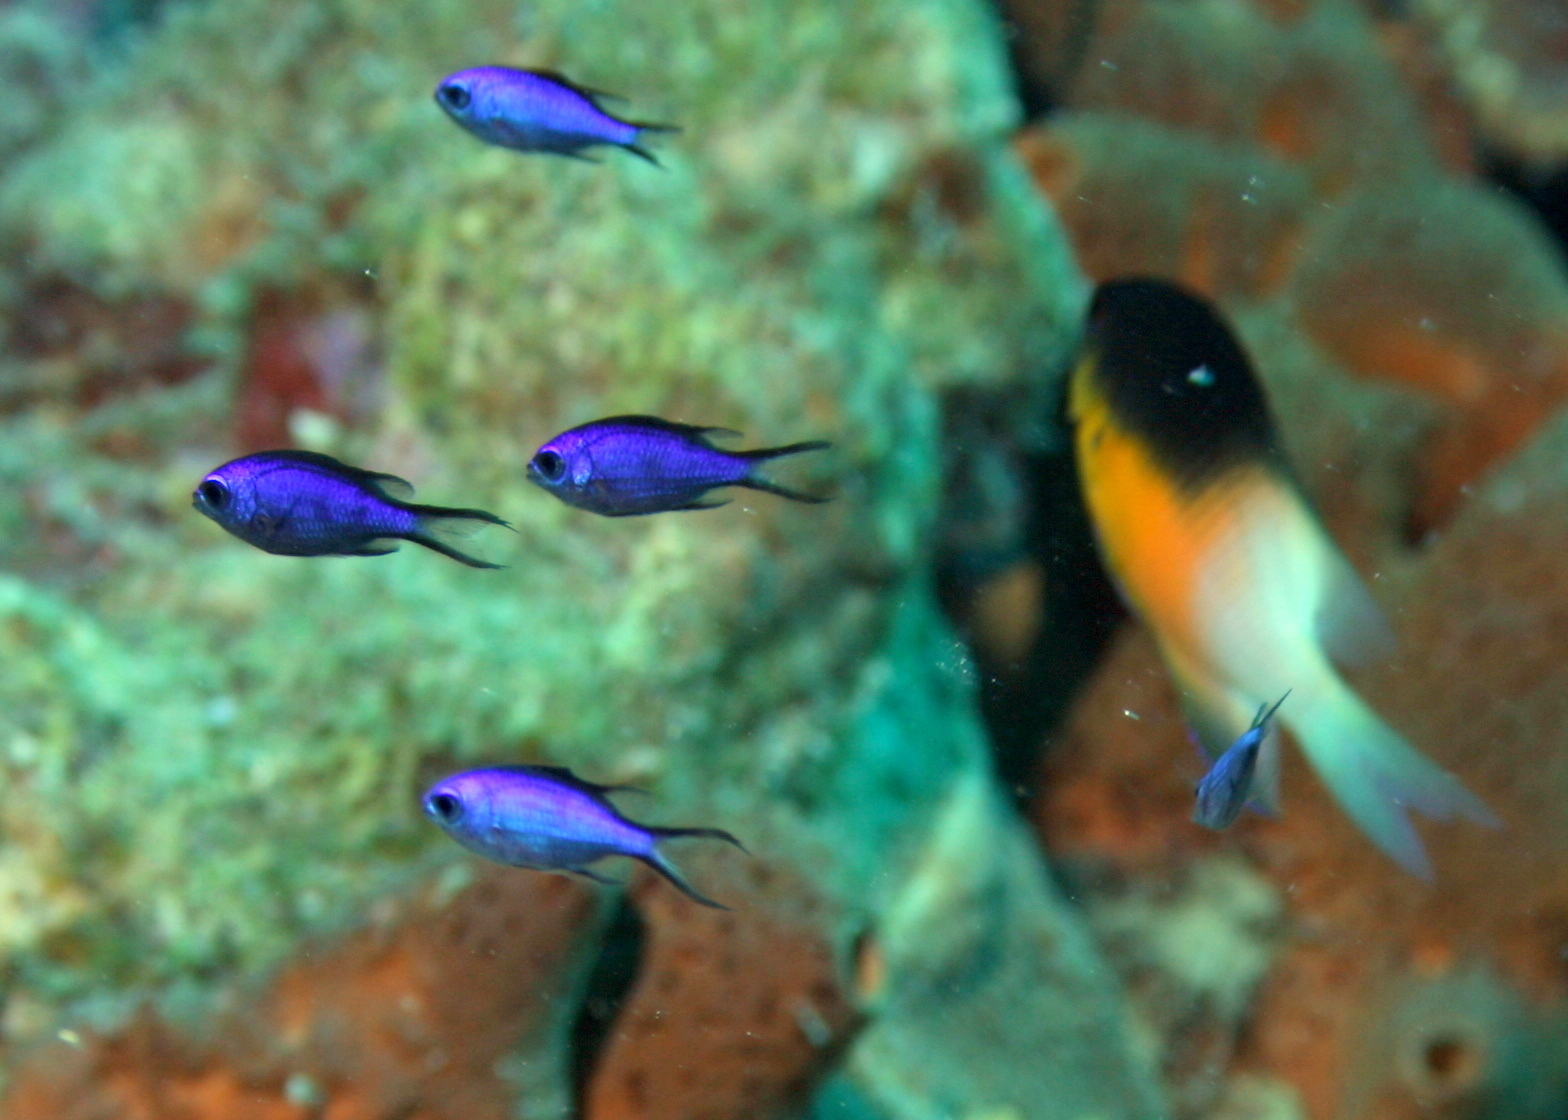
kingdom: Animalia
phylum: Chordata
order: Perciformes
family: Pomacentridae
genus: Chromis
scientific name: Chromis cyanea
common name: Blue chromis
